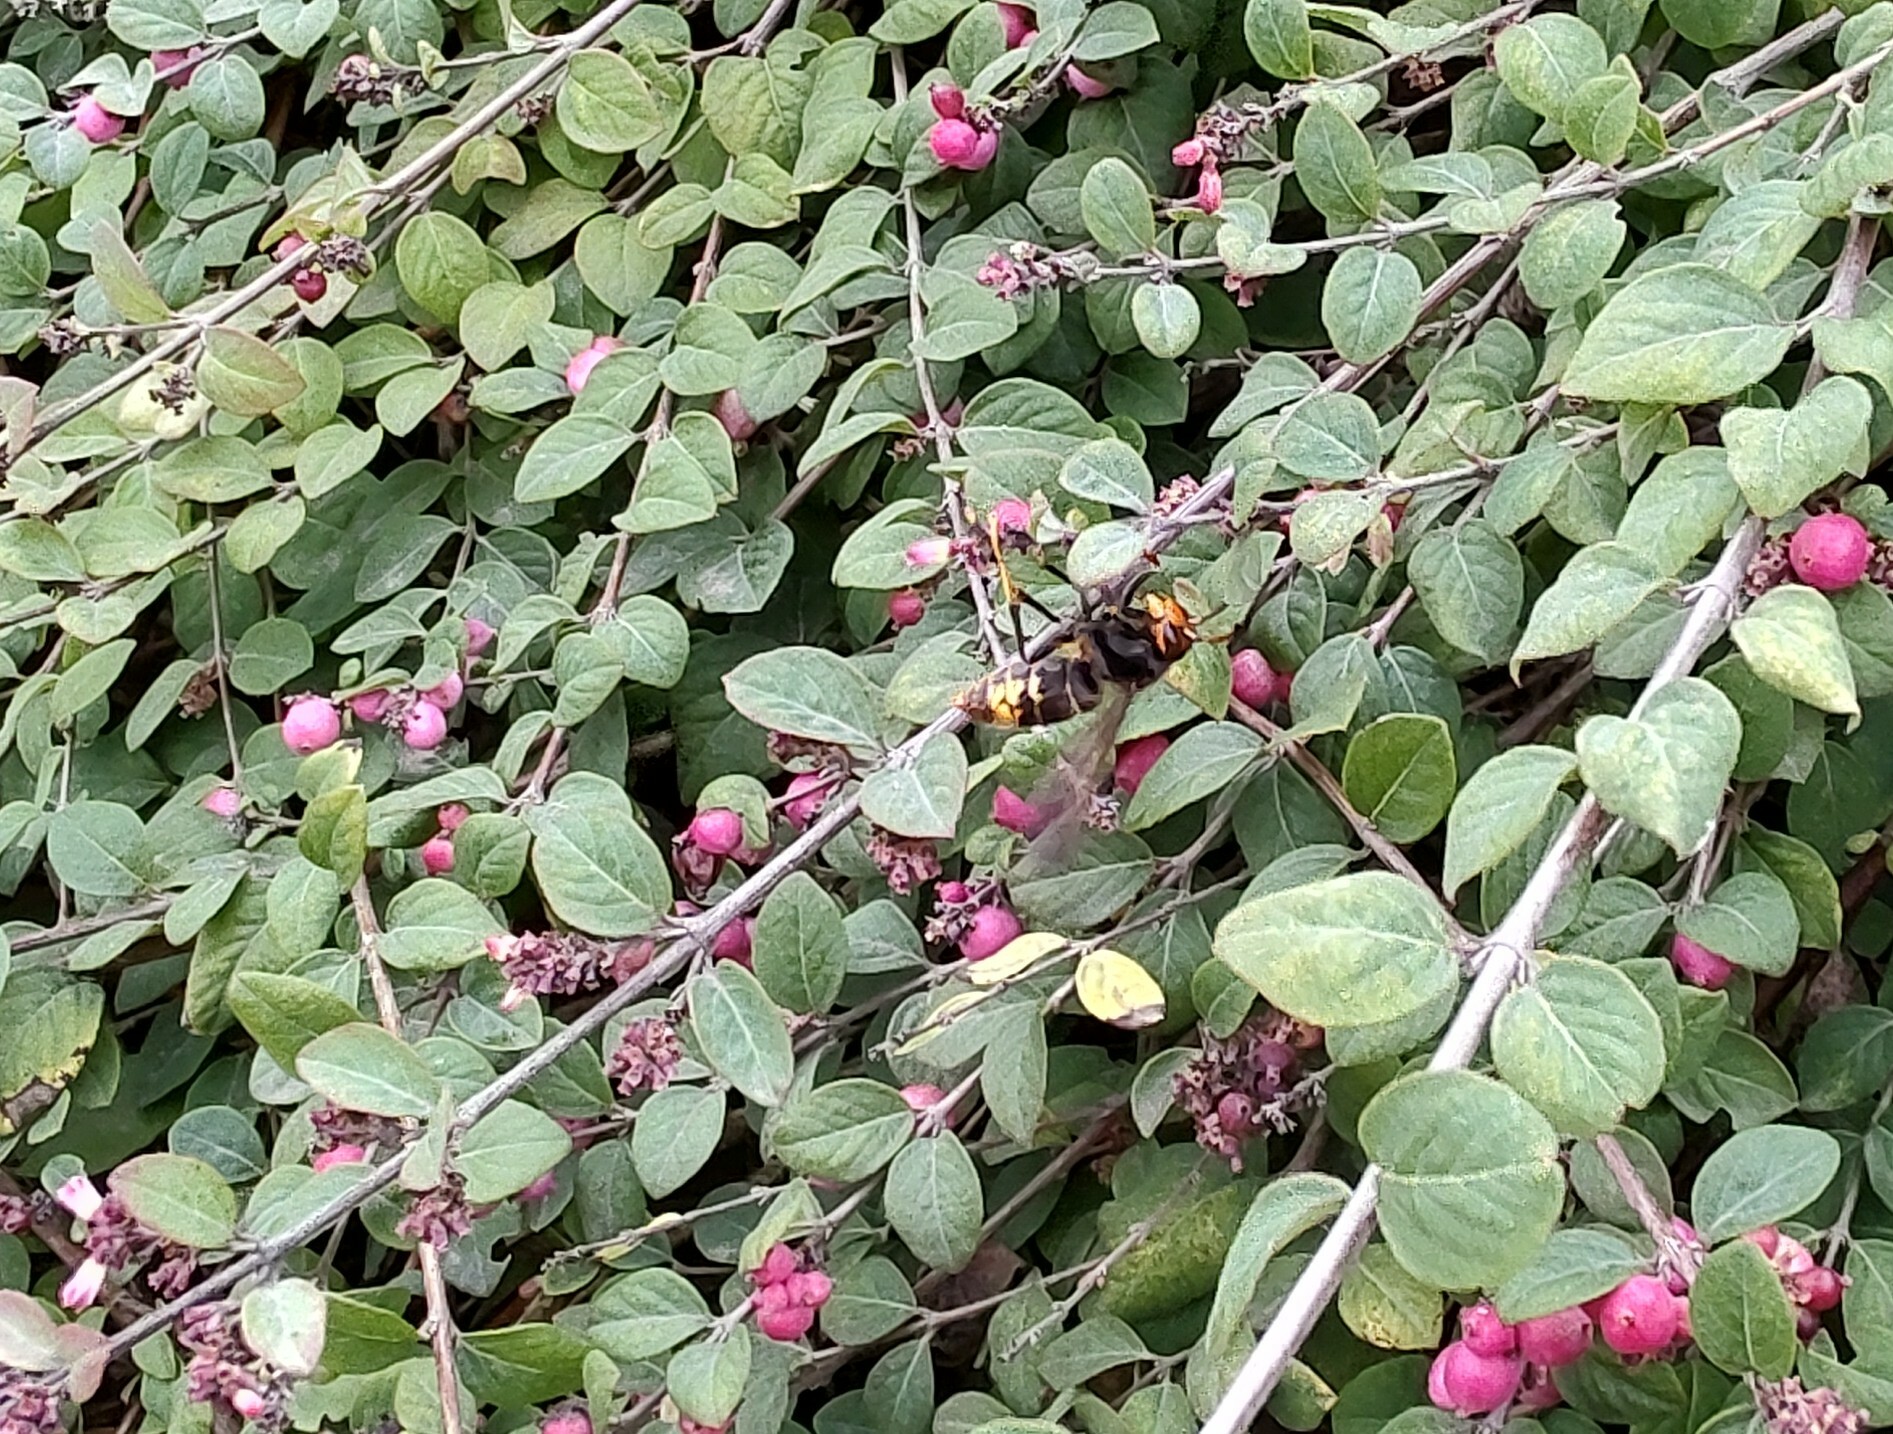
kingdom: Animalia
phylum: Arthropoda
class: Insecta
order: Hymenoptera
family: Vespidae
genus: Vespa
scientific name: Vespa velutina
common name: Asian hornet
